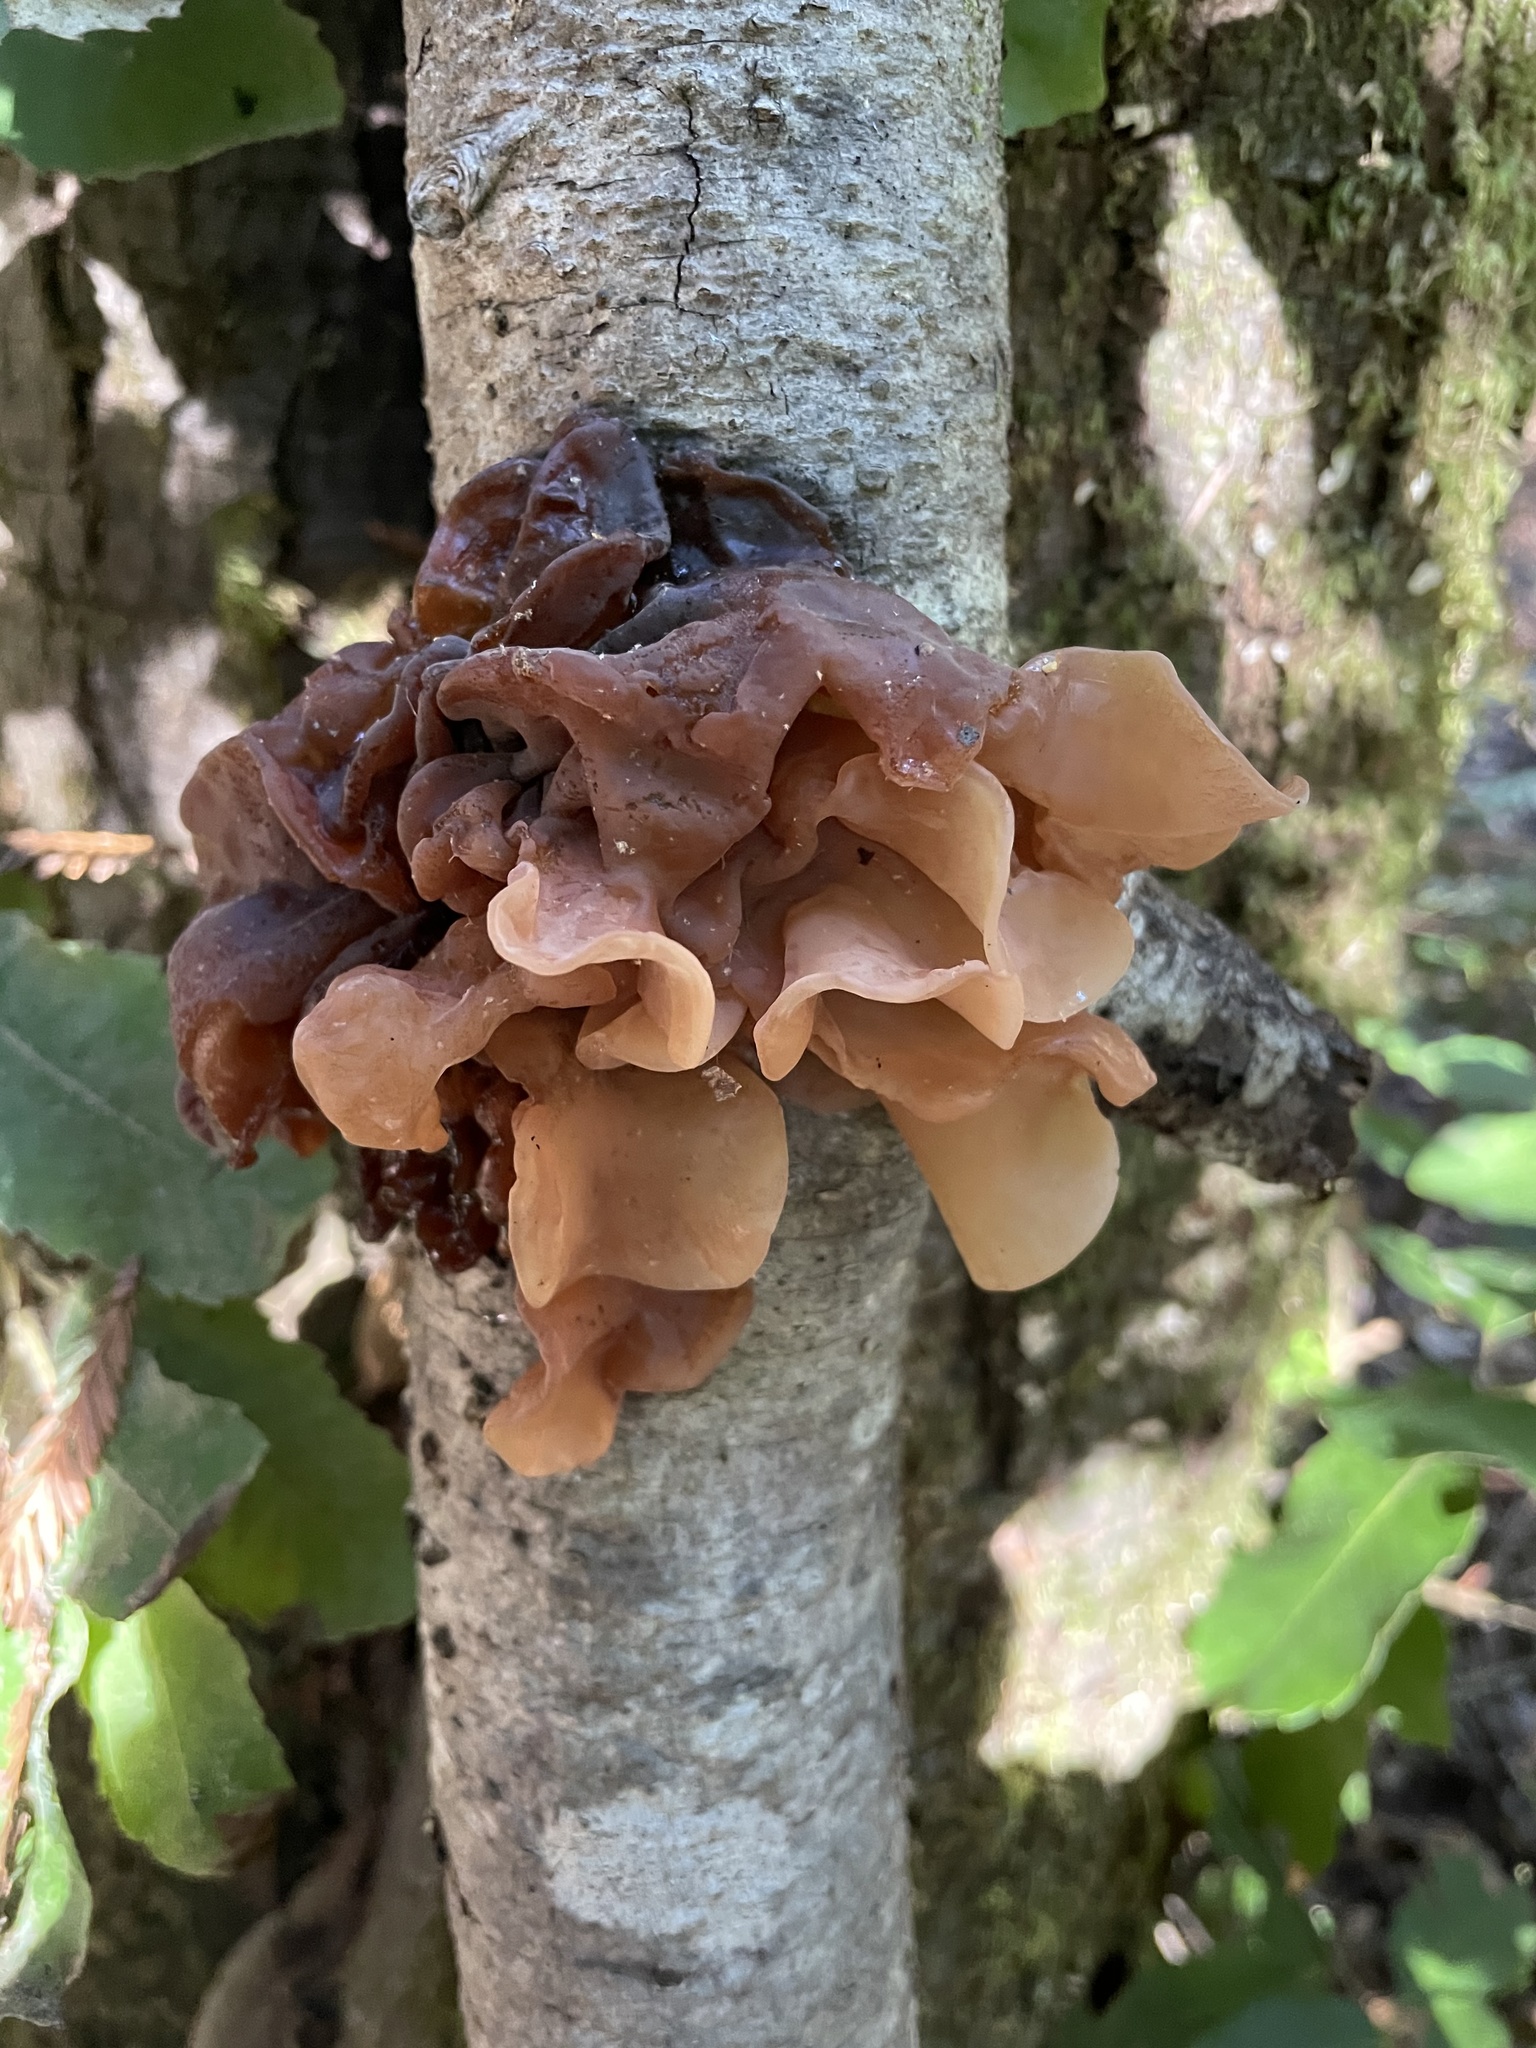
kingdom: Fungi
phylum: Basidiomycota
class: Tremellomycetes
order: Tremellales
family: Tremellaceae
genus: Phaeotremella
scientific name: Phaeotremella foliacea
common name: Leafy brain
